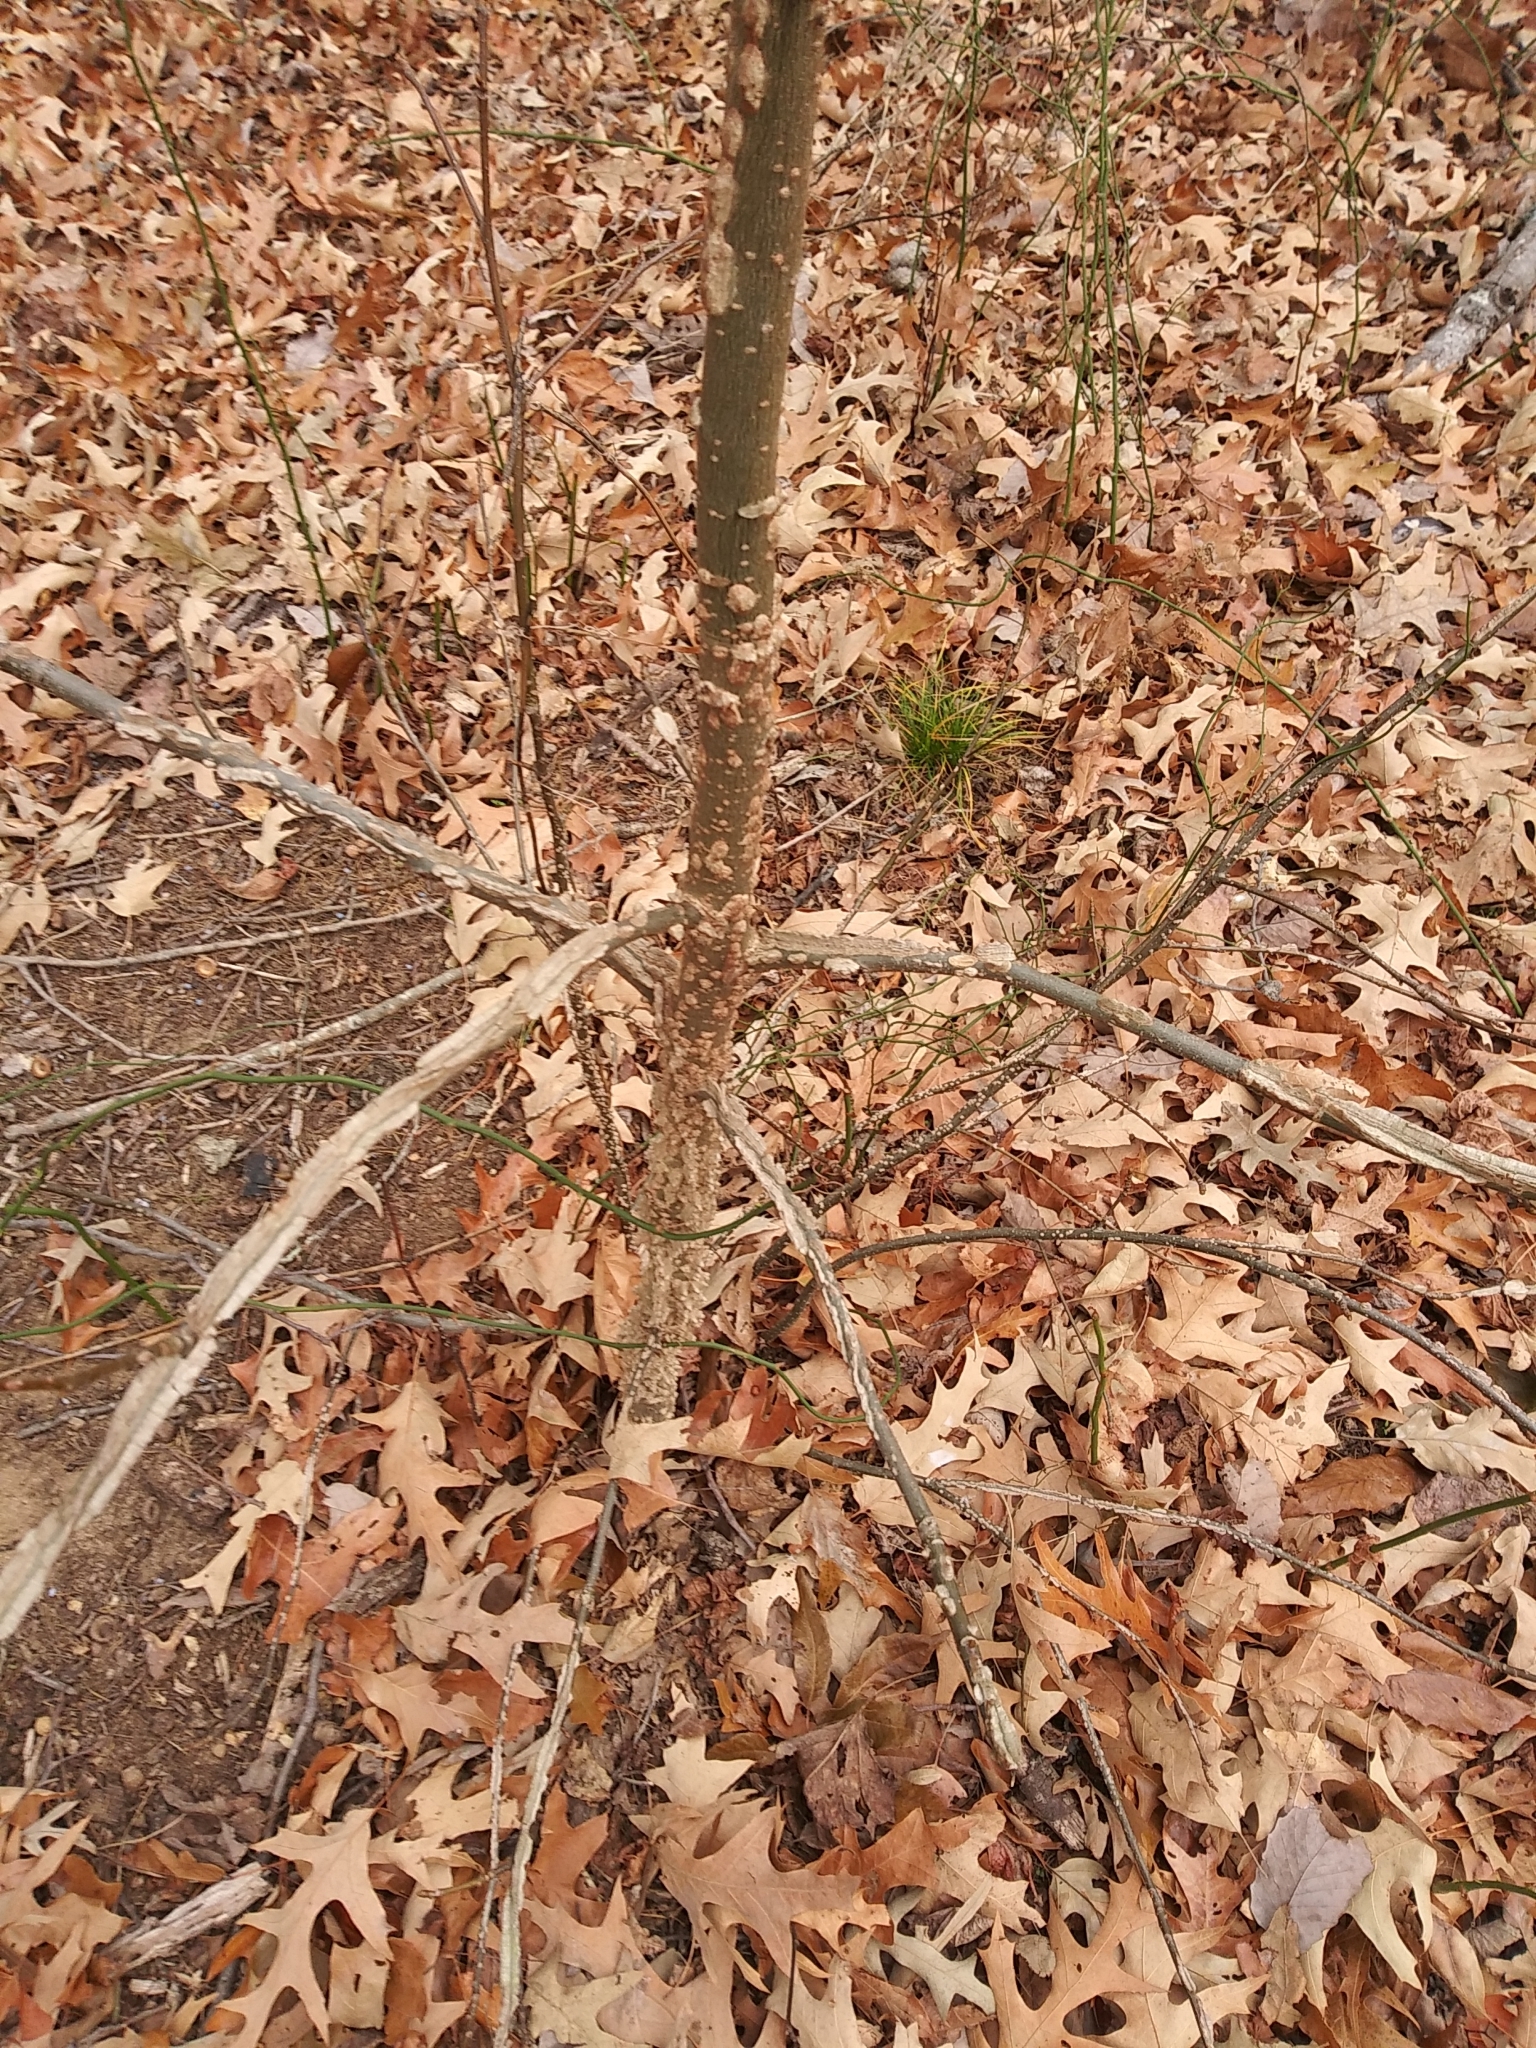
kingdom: Plantae
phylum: Tracheophyta
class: Magnoliopsida
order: Saxifragales
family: Altingiaceae
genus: Liquidambar
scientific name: Liquidambar styraciflua
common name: Sweet gum
